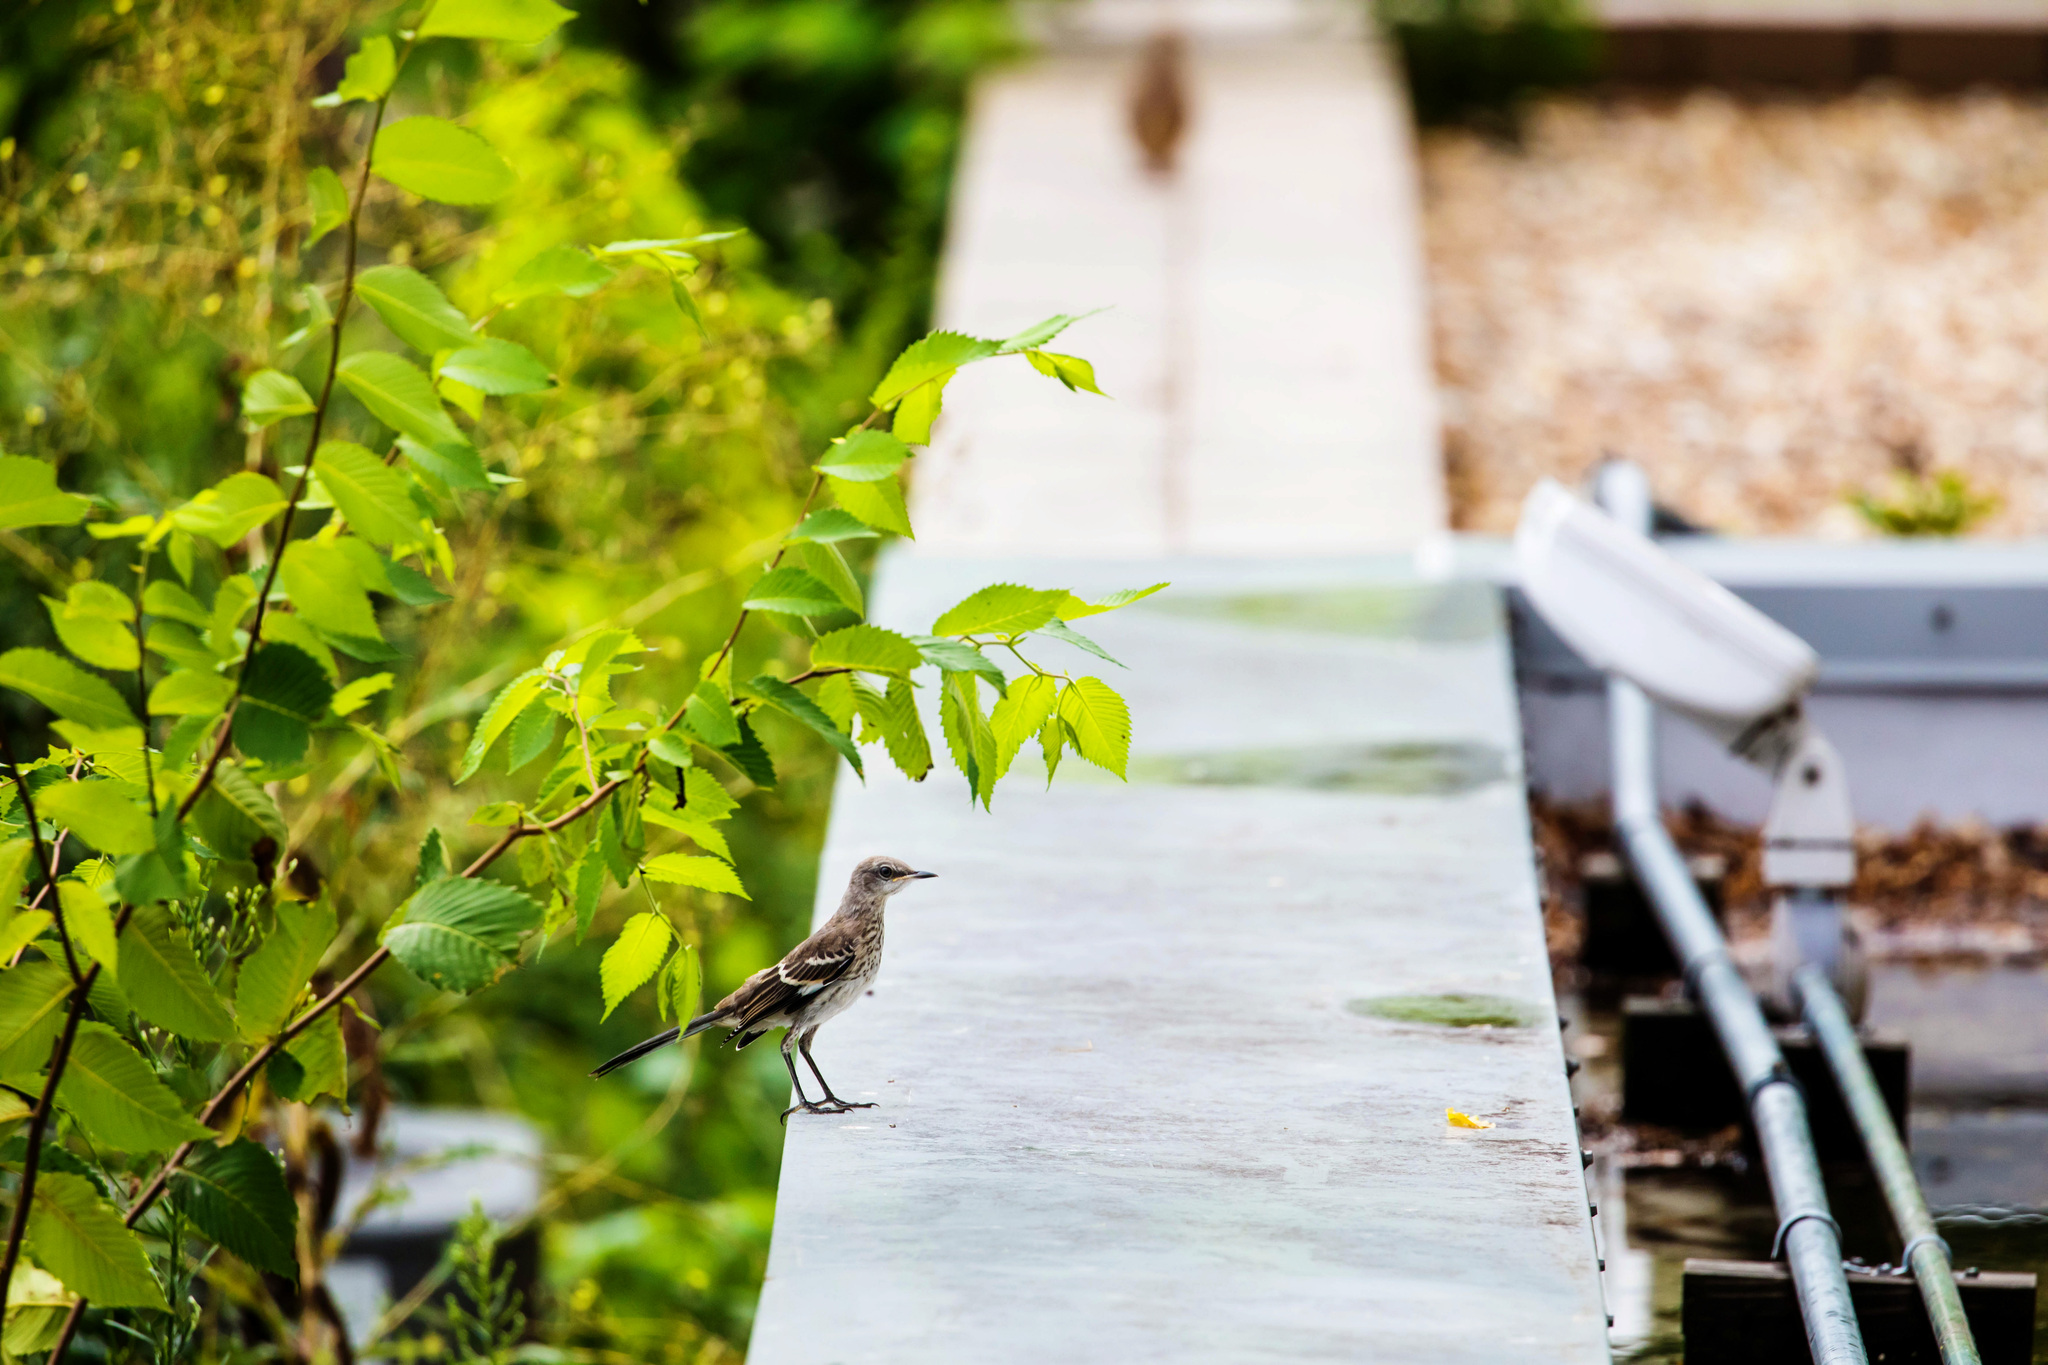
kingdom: Animalia
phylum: Chordata
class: Aves
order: Passeriformes
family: Mimidae
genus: Mimus
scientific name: Mimus polyglottos
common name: Northern mockingbird
